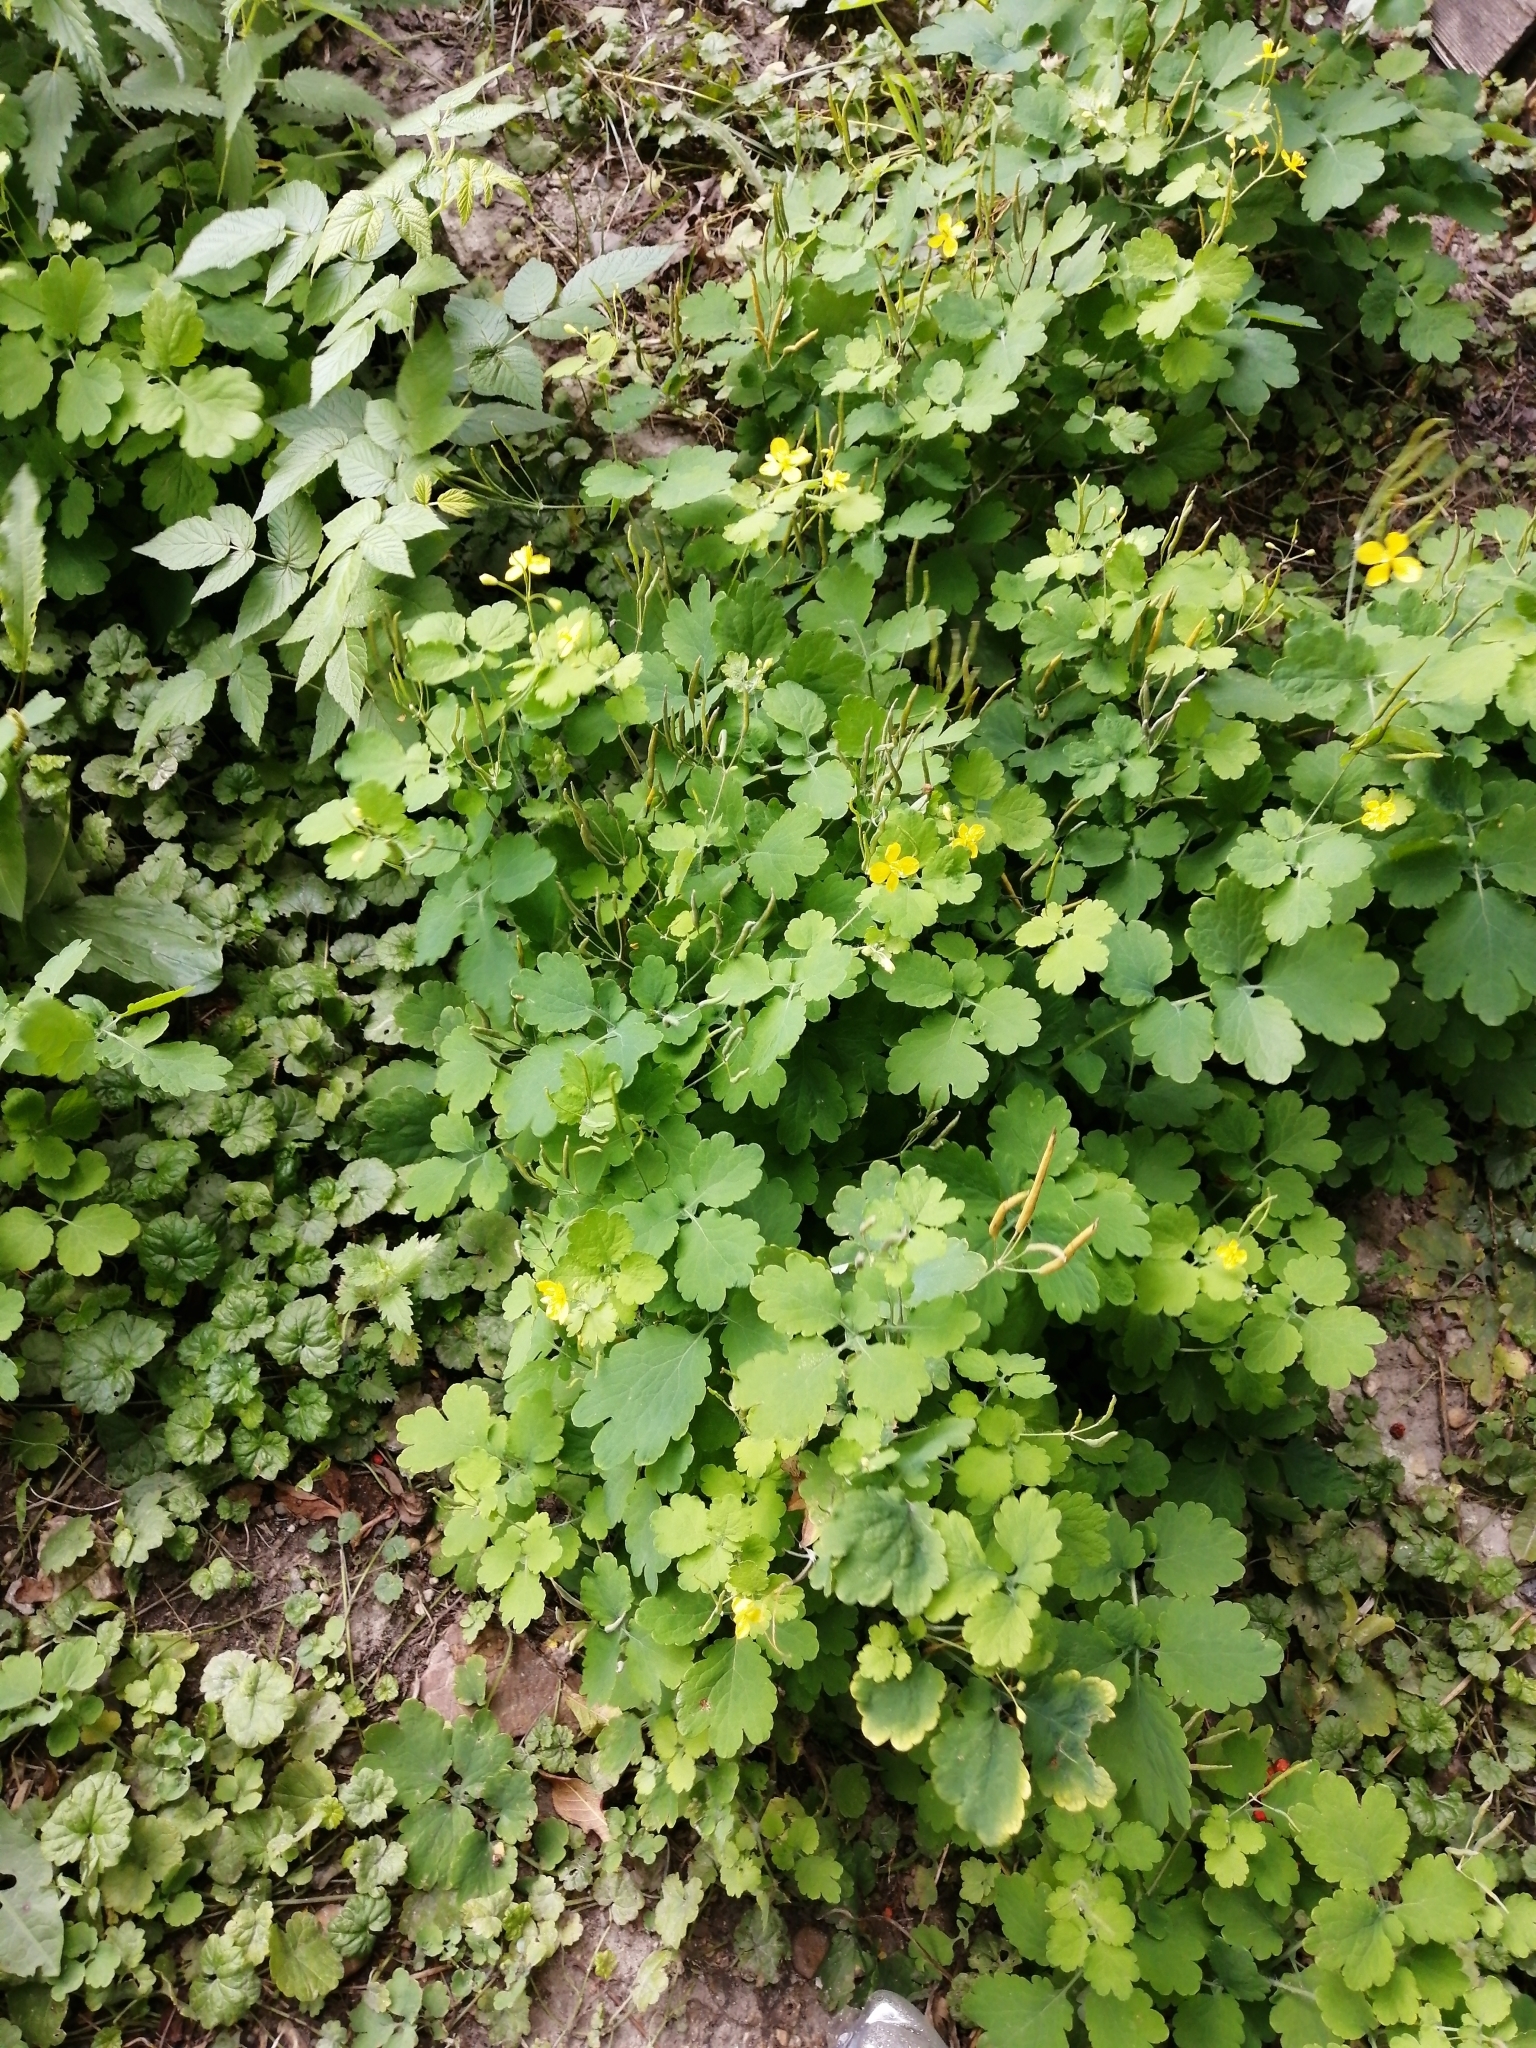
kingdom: Plantae
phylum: Tracheophyta
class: Magnoliopsida
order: Ranunculales
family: Papaveraceae
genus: Chelidonium
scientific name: Chelidonium majus
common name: Greater celandine
